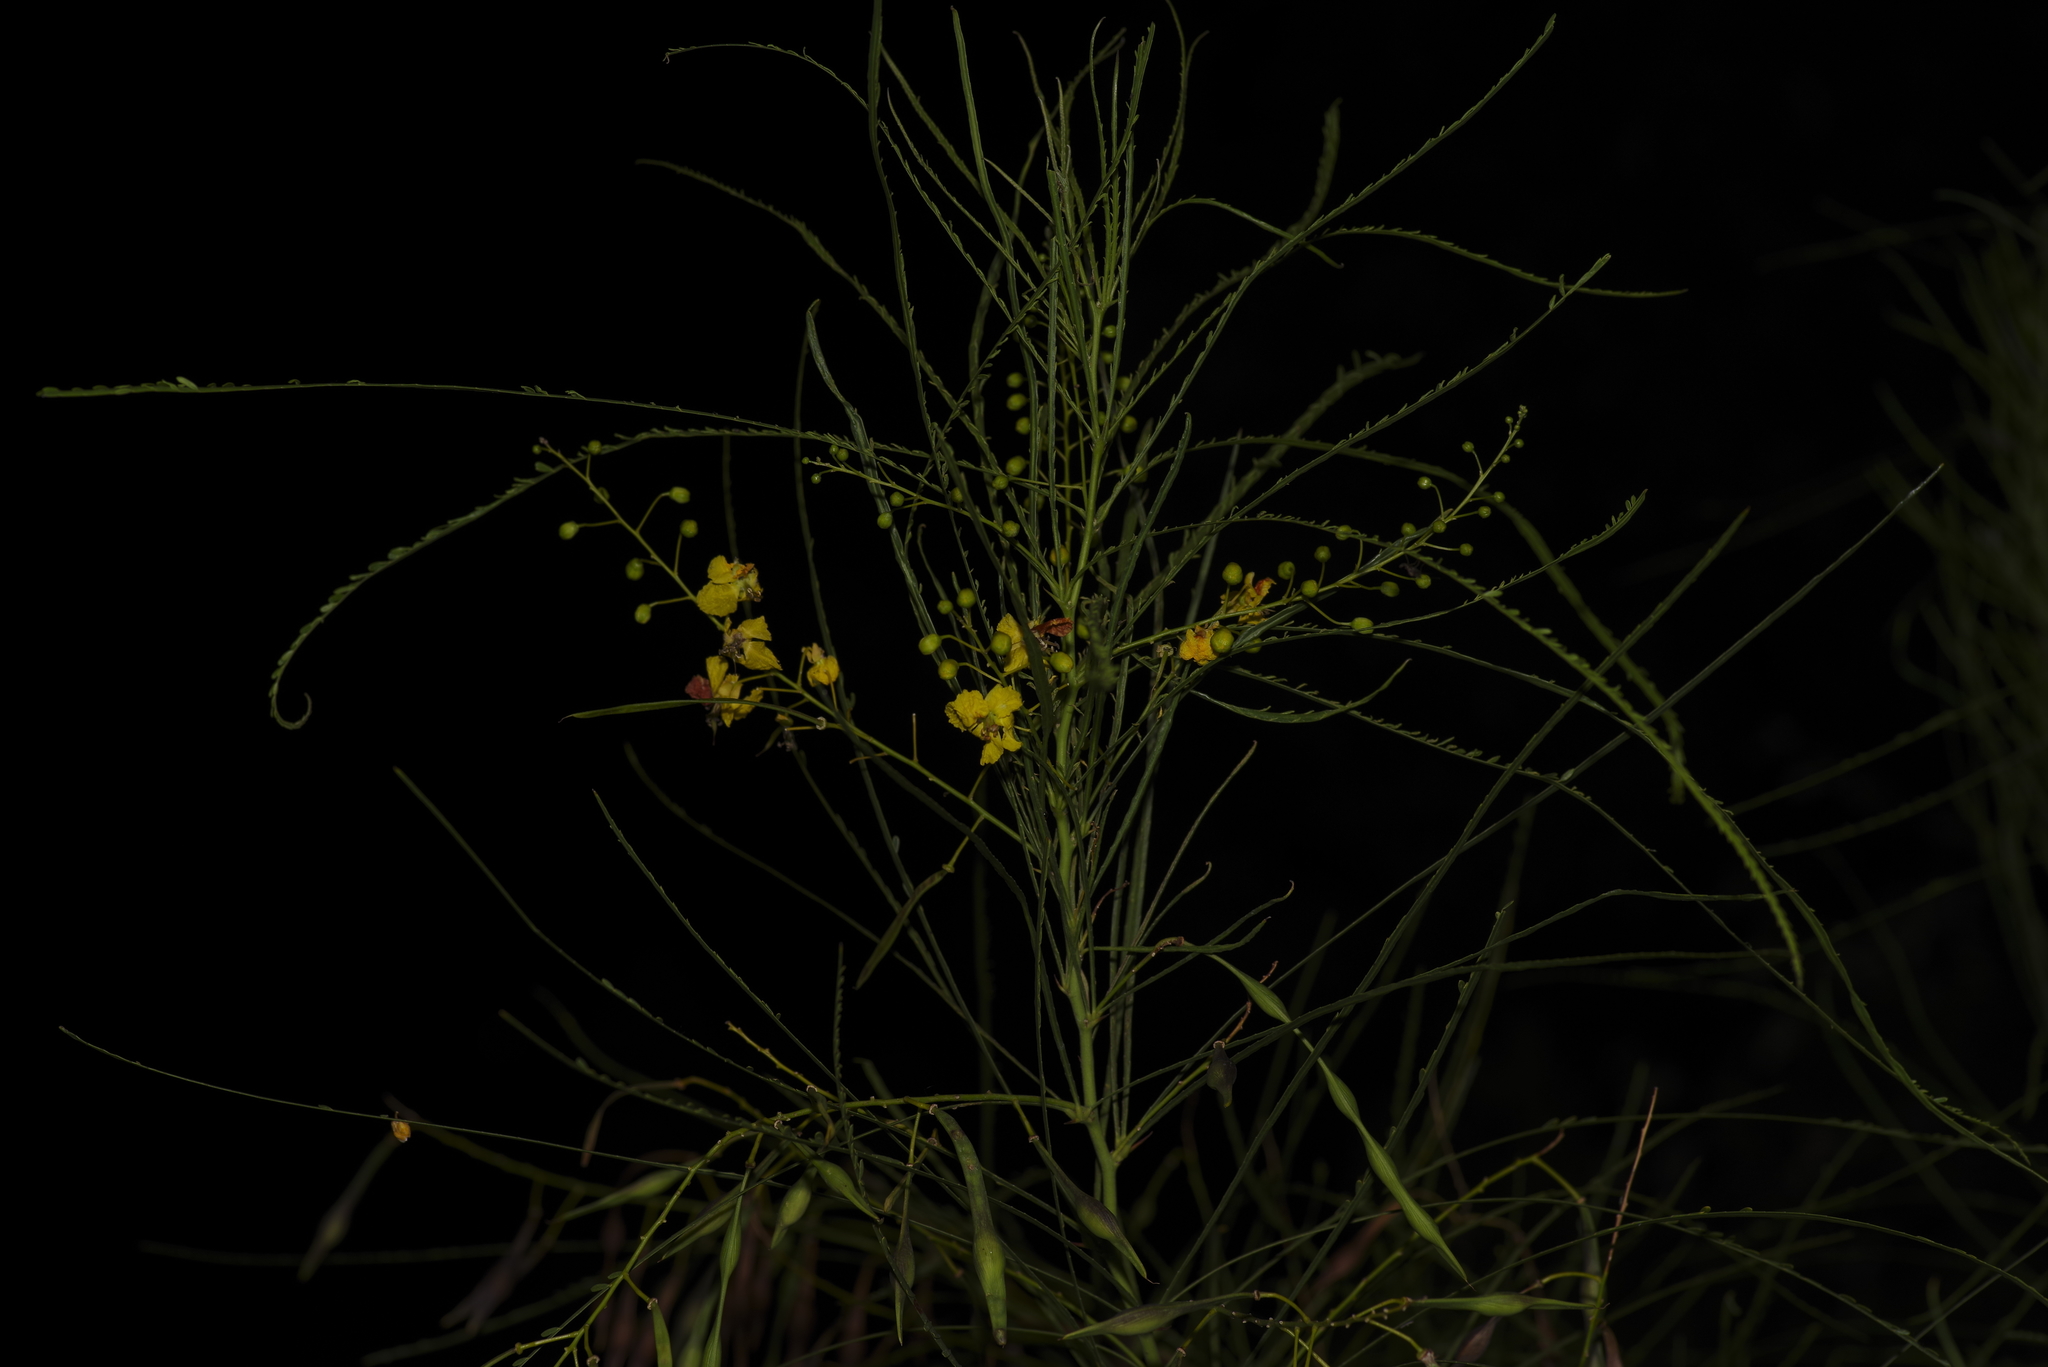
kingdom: Plantae
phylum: Tracheophyta
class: Magnoliopsida
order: Fabales
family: Fabaceae
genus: Parkinsonia
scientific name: Parkinsonia aculeata
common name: Jerusalem thorn
